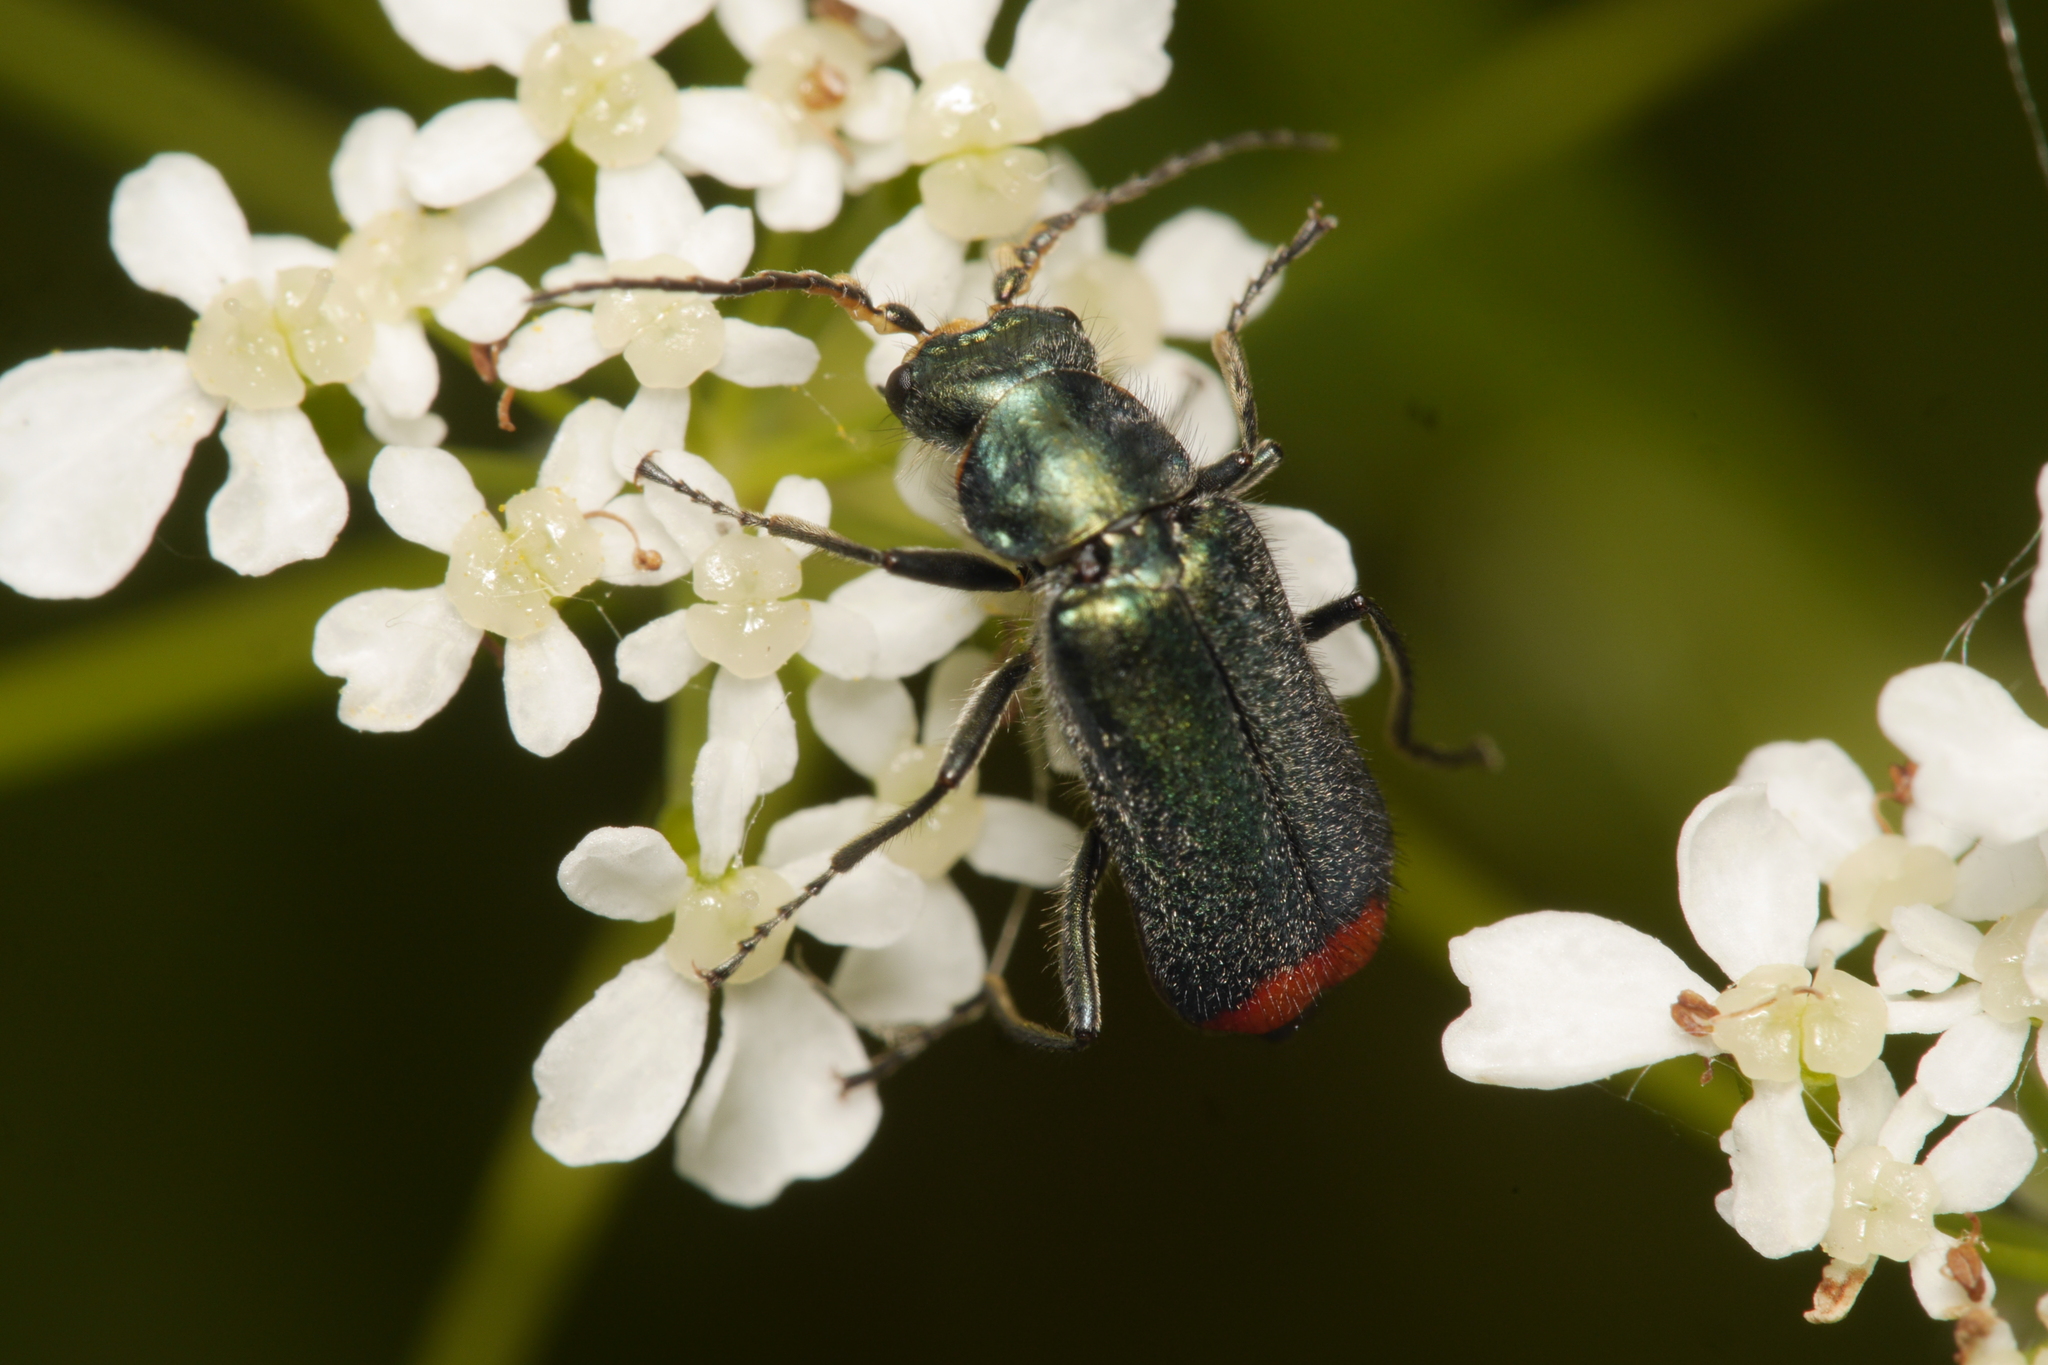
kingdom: Animalia
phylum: Arthropoda
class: Insecta
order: Coleoptera
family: Melyridae
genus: Malachius
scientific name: Malachius bipustulatus
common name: Malachite beetle
